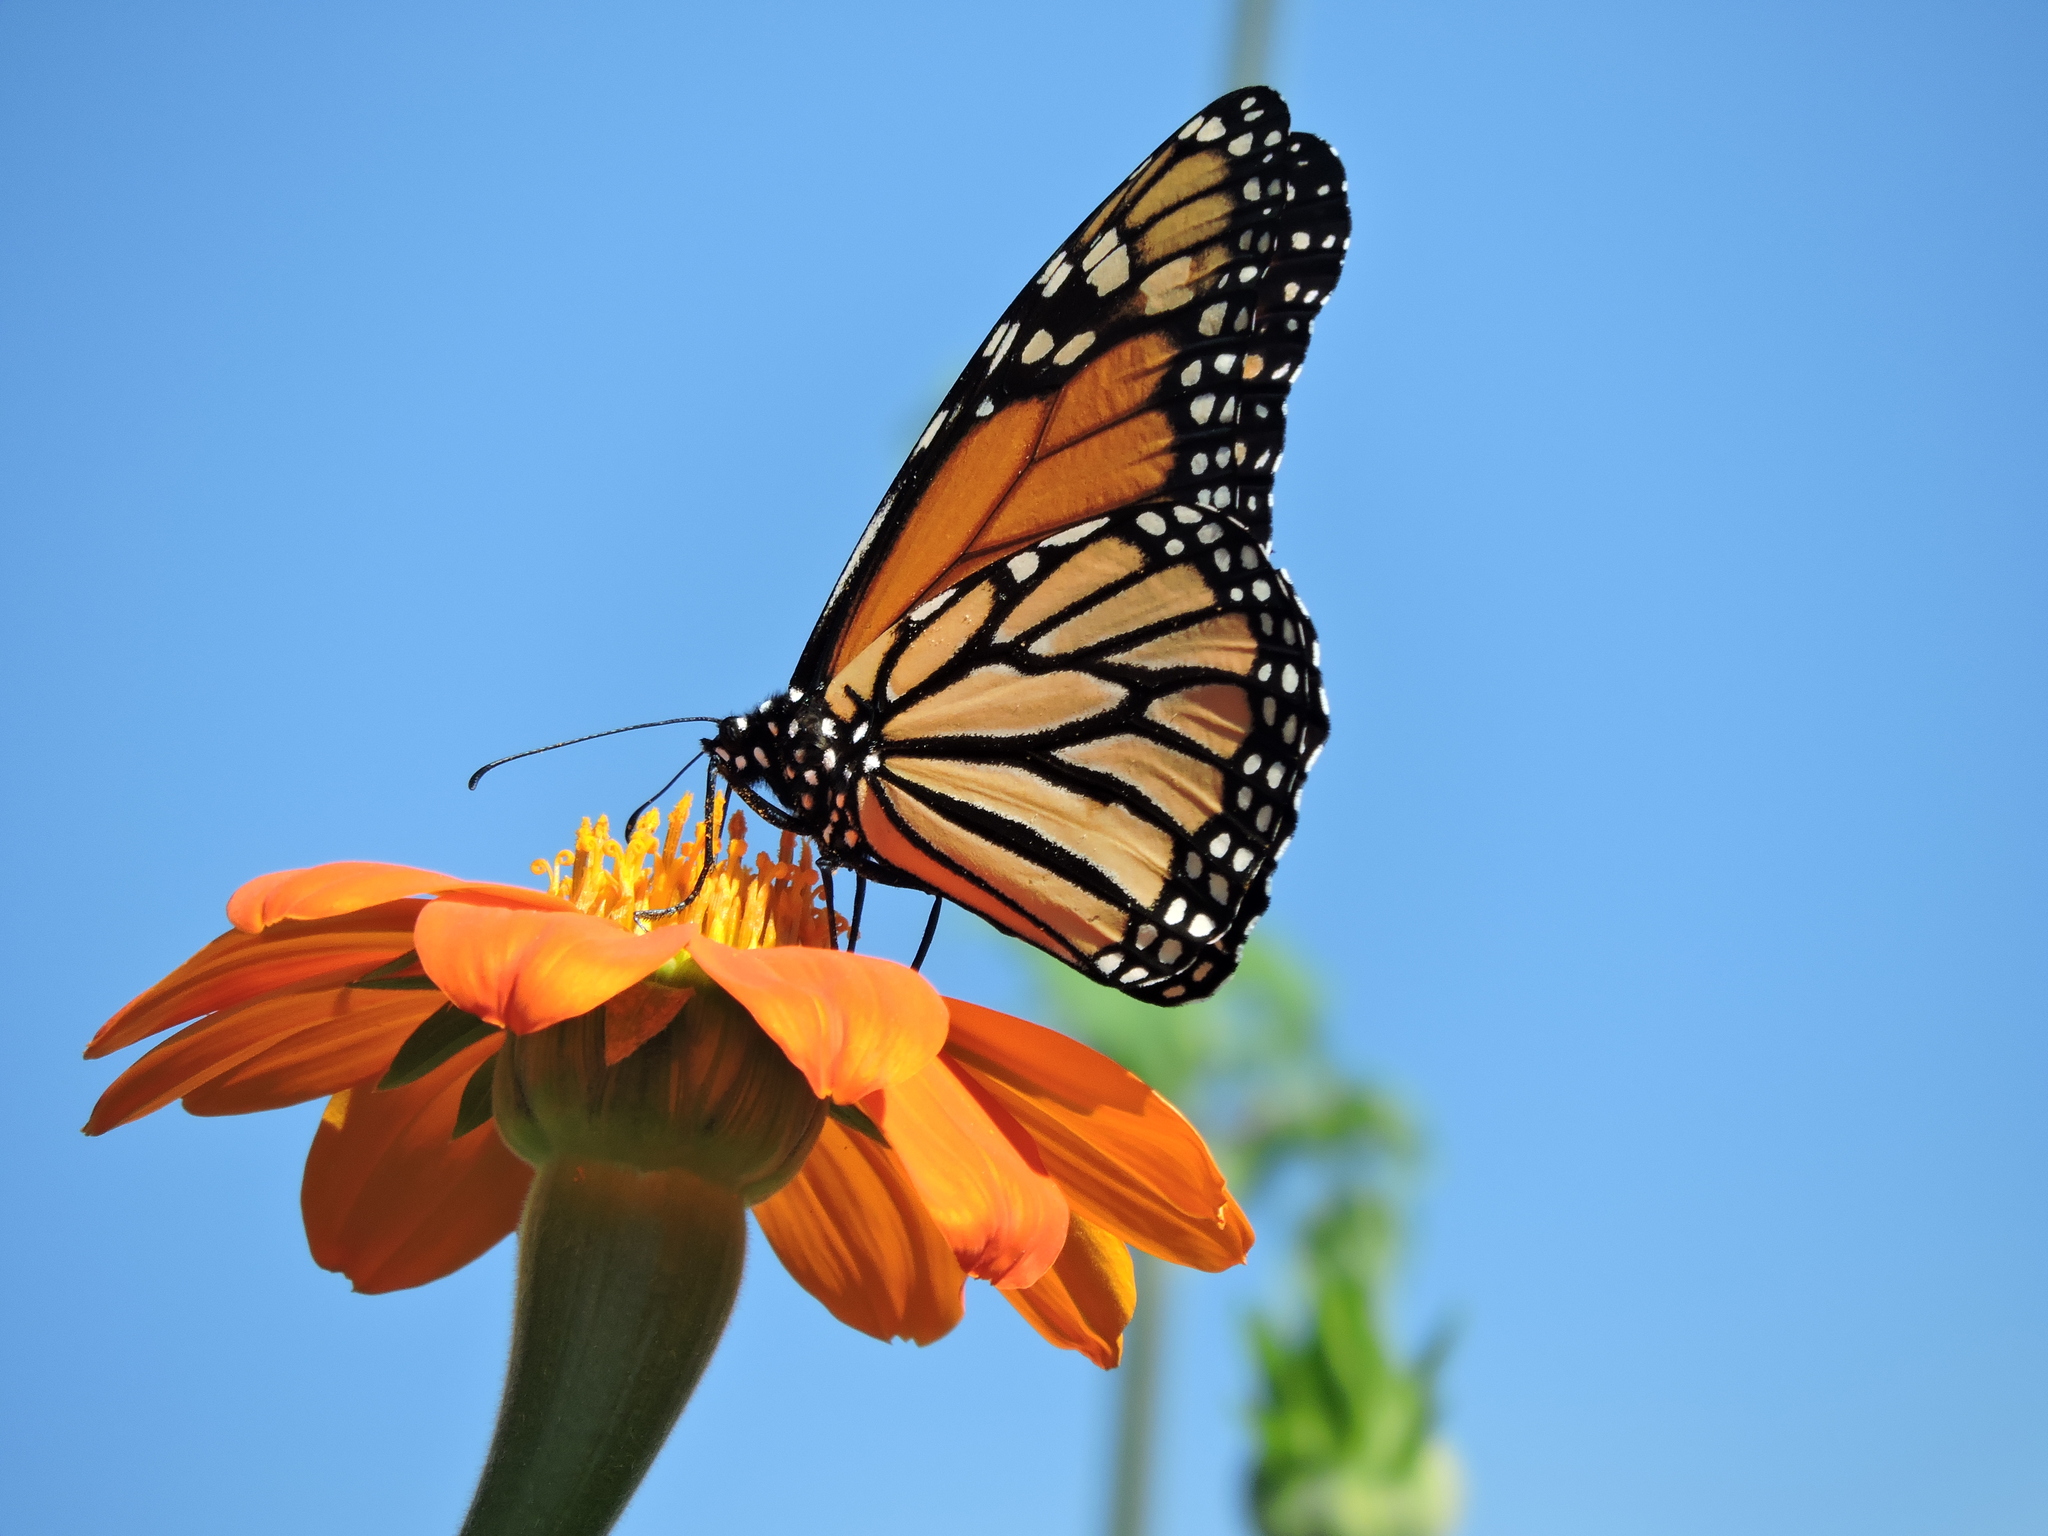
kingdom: Animalia
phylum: Arthropoda
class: Insecta
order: Lepidoptera
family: Nymphalidae
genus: Danaus
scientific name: Danaus plexippus
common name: Monarch
